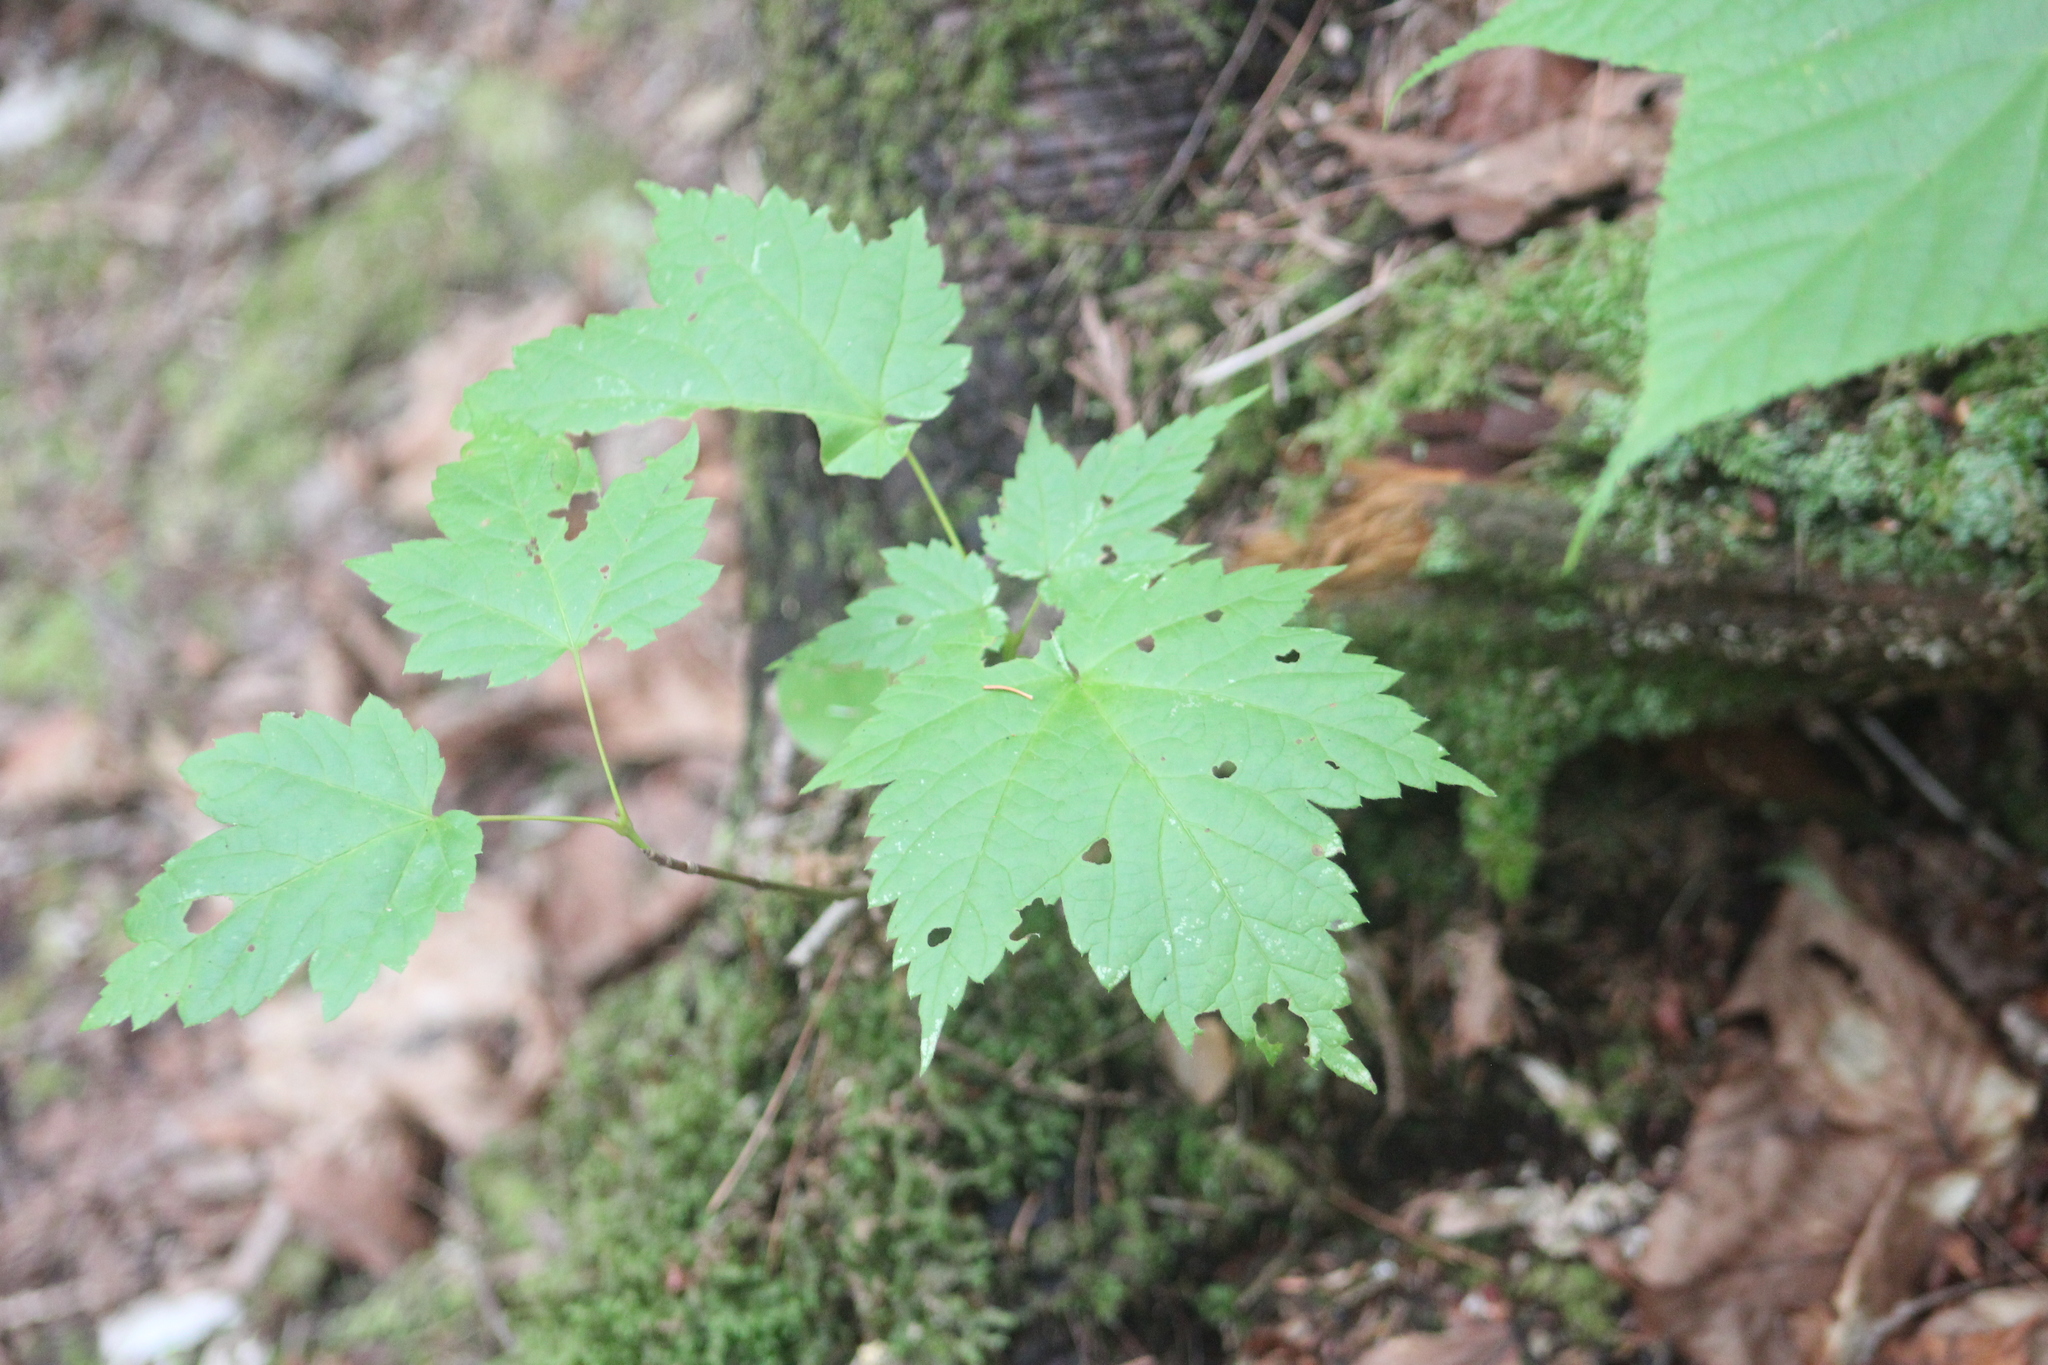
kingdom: Plantae
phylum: Tracheophyta
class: Magnoliopsida
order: Sapindales
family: Sapindaceae
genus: Acer
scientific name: Acer spicatum
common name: Mountain maple
